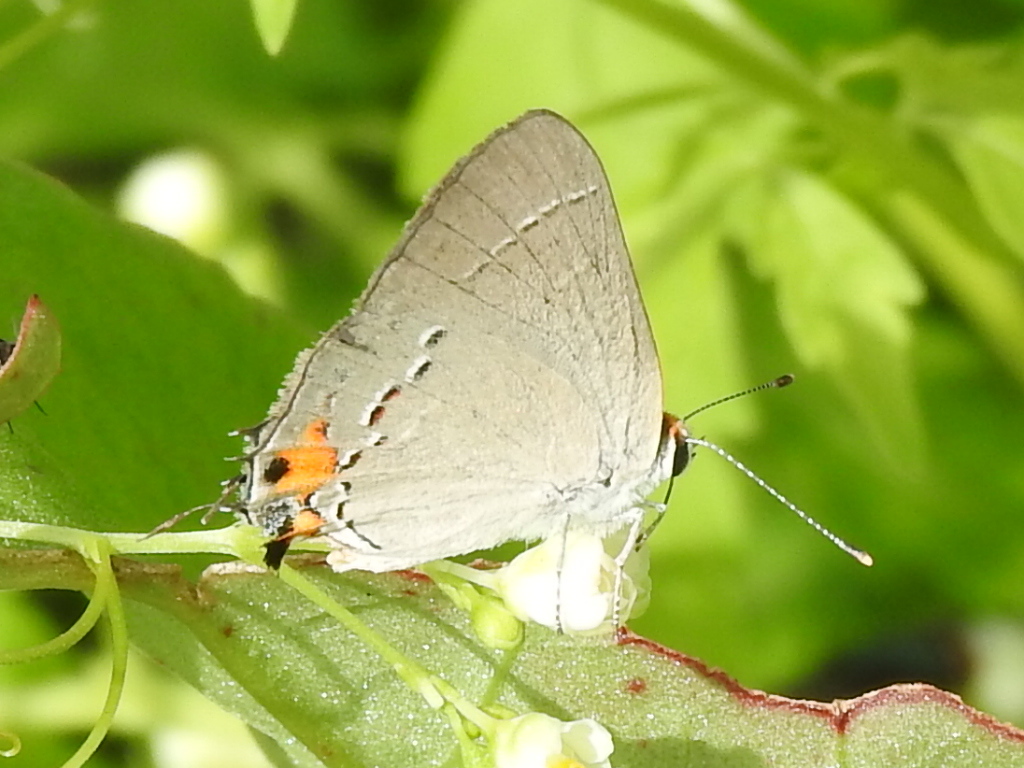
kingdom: Animalia
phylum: Arthropoda
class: Insecta
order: Lepidoptera
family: Lycaenidae
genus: Strymon
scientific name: Strymon melinus
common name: Gray hairstreak
